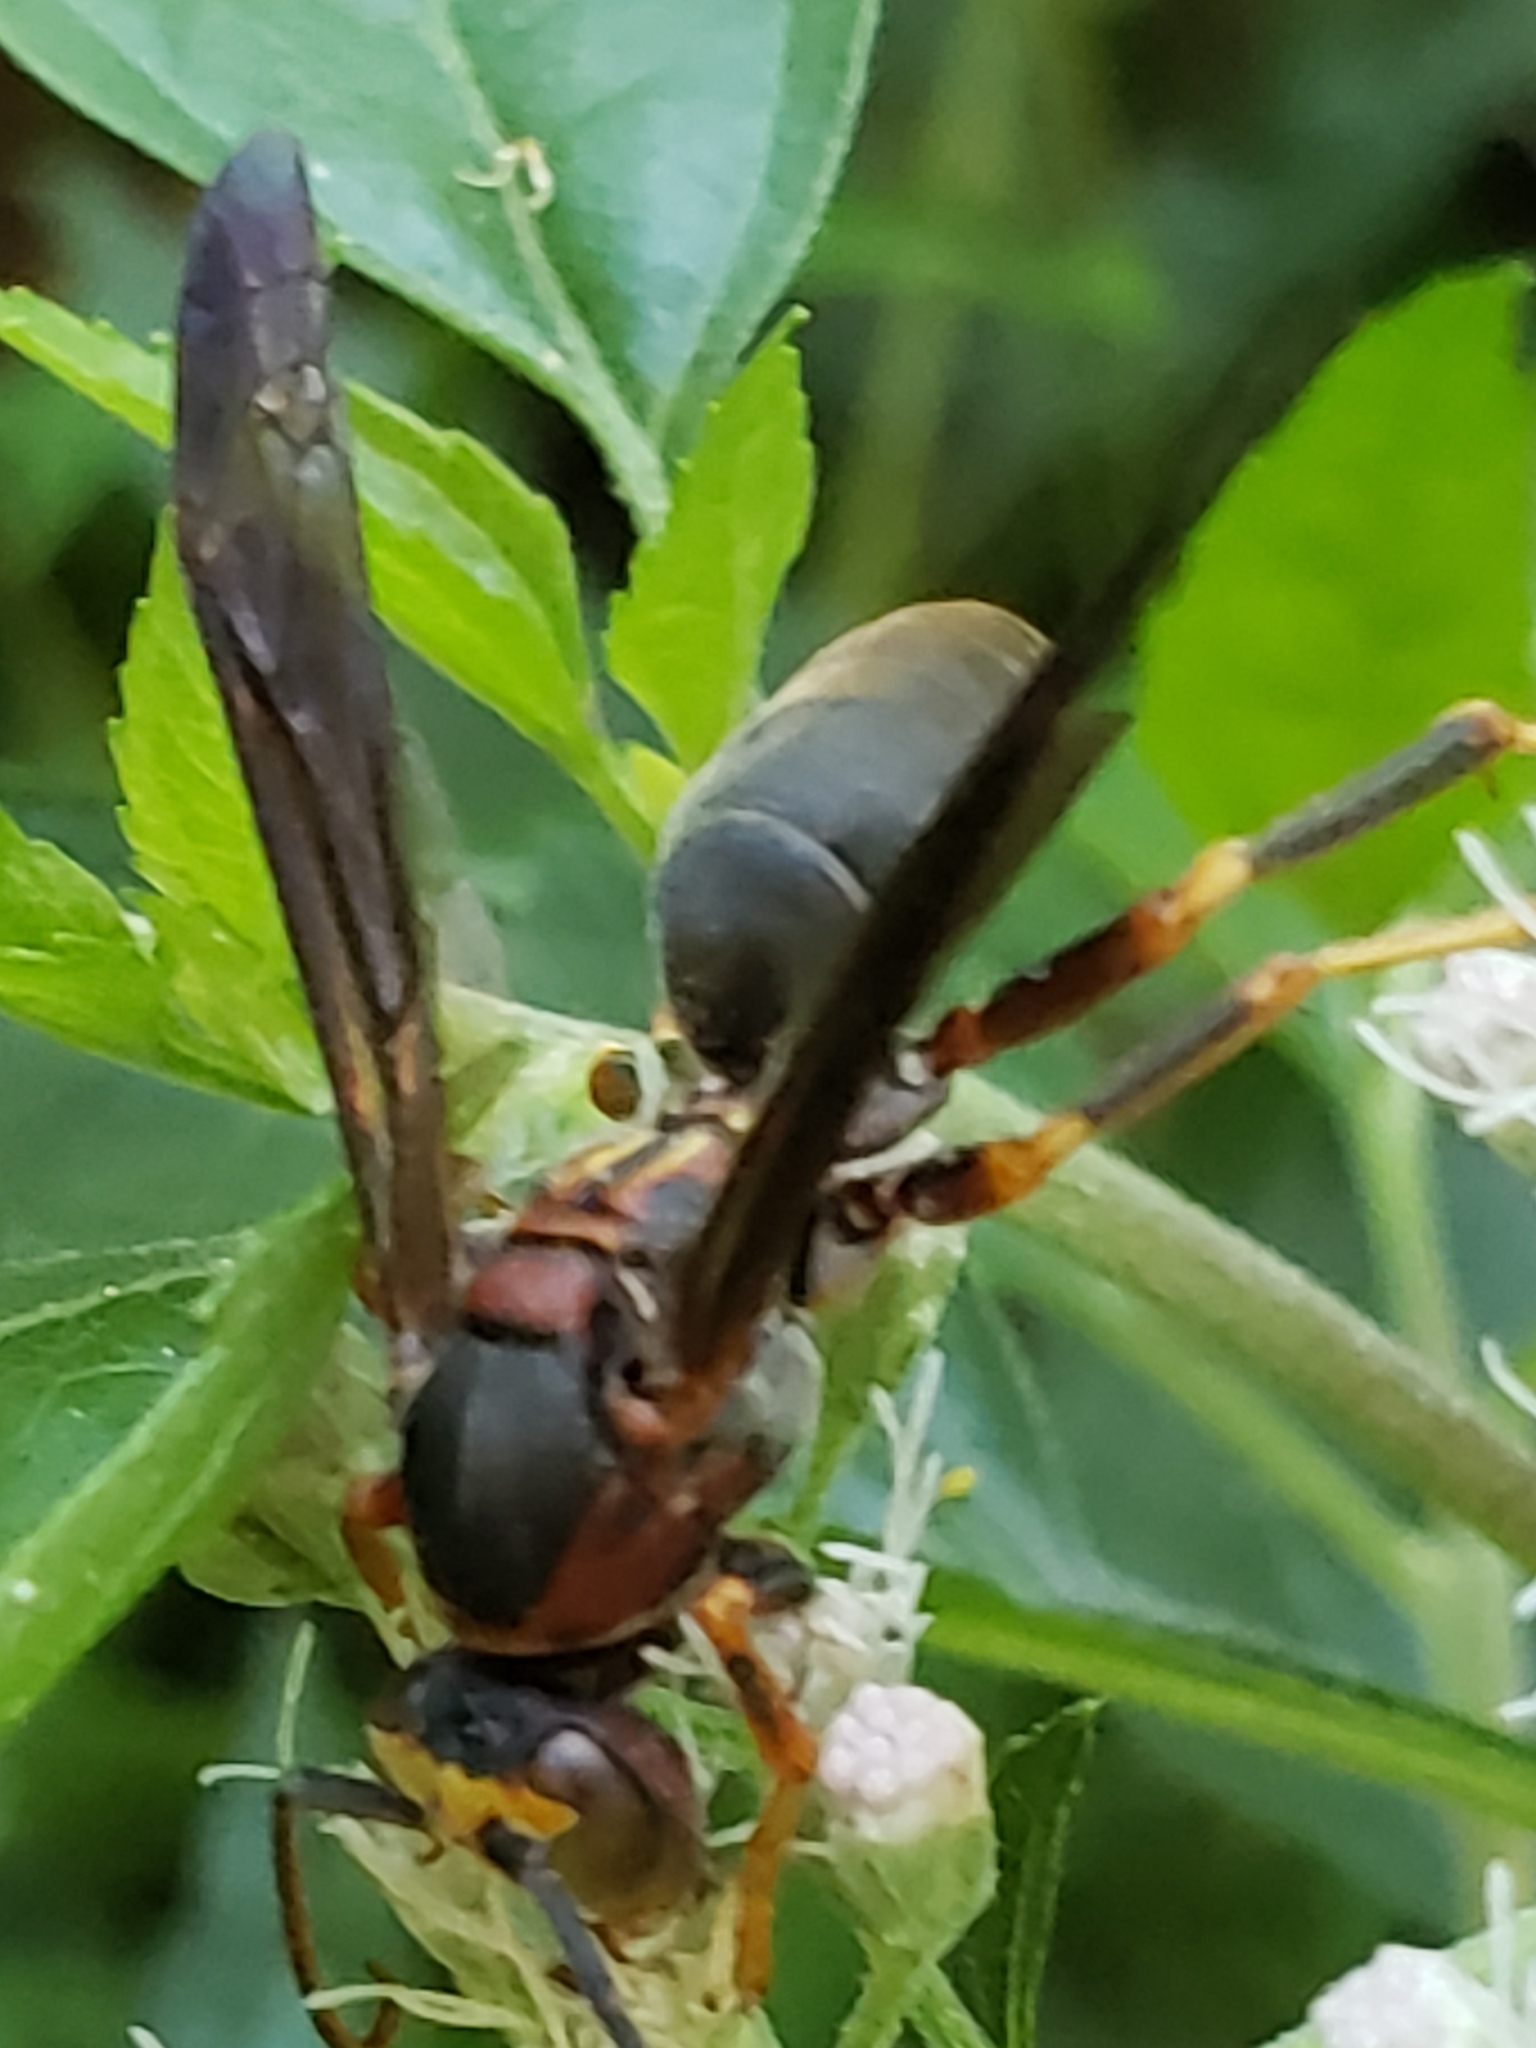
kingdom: Animalia
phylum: Arthropoda
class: Insecta
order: Hymenoptera
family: Eumenidae
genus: Polistes
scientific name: Polistes metricus
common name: Metric paper wasp
